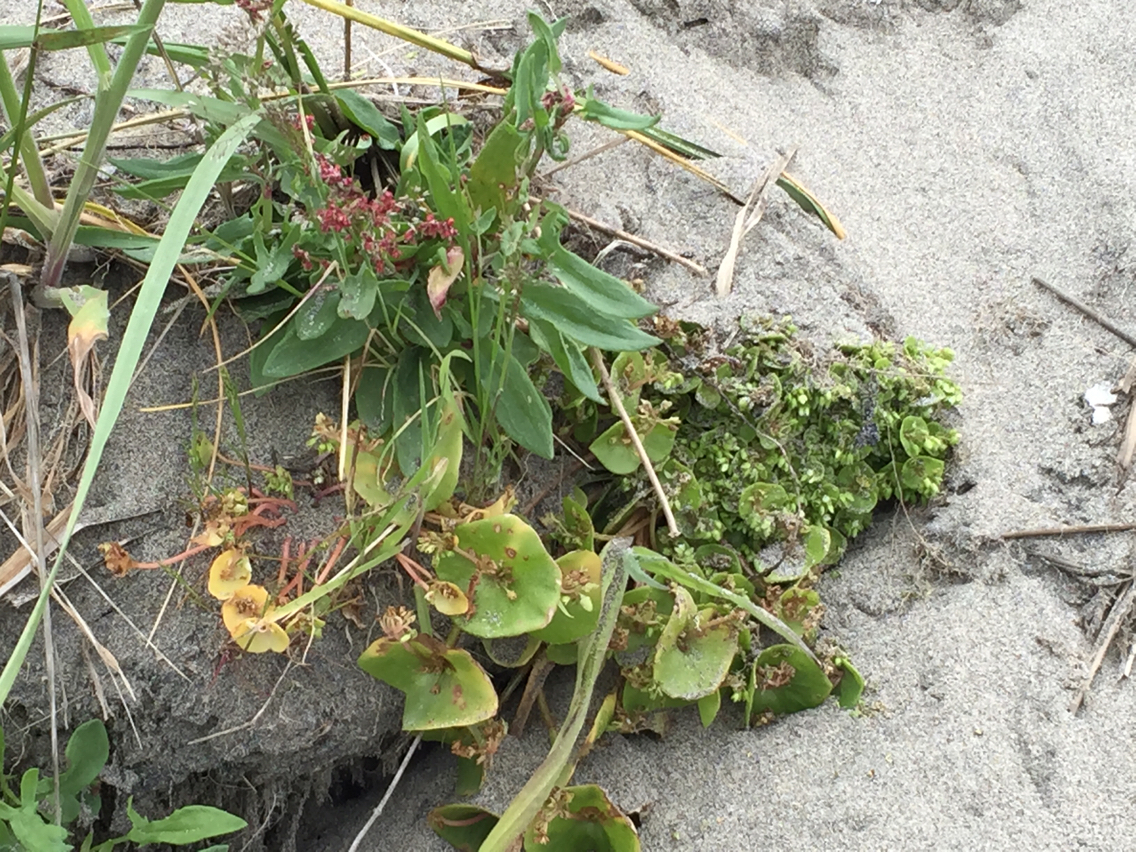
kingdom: Plantae
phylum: Tracheophyta
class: Magnoliopsida
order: Caryophyllales
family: Montiaceae
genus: Claytonia
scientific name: Claytonia perfoliata
